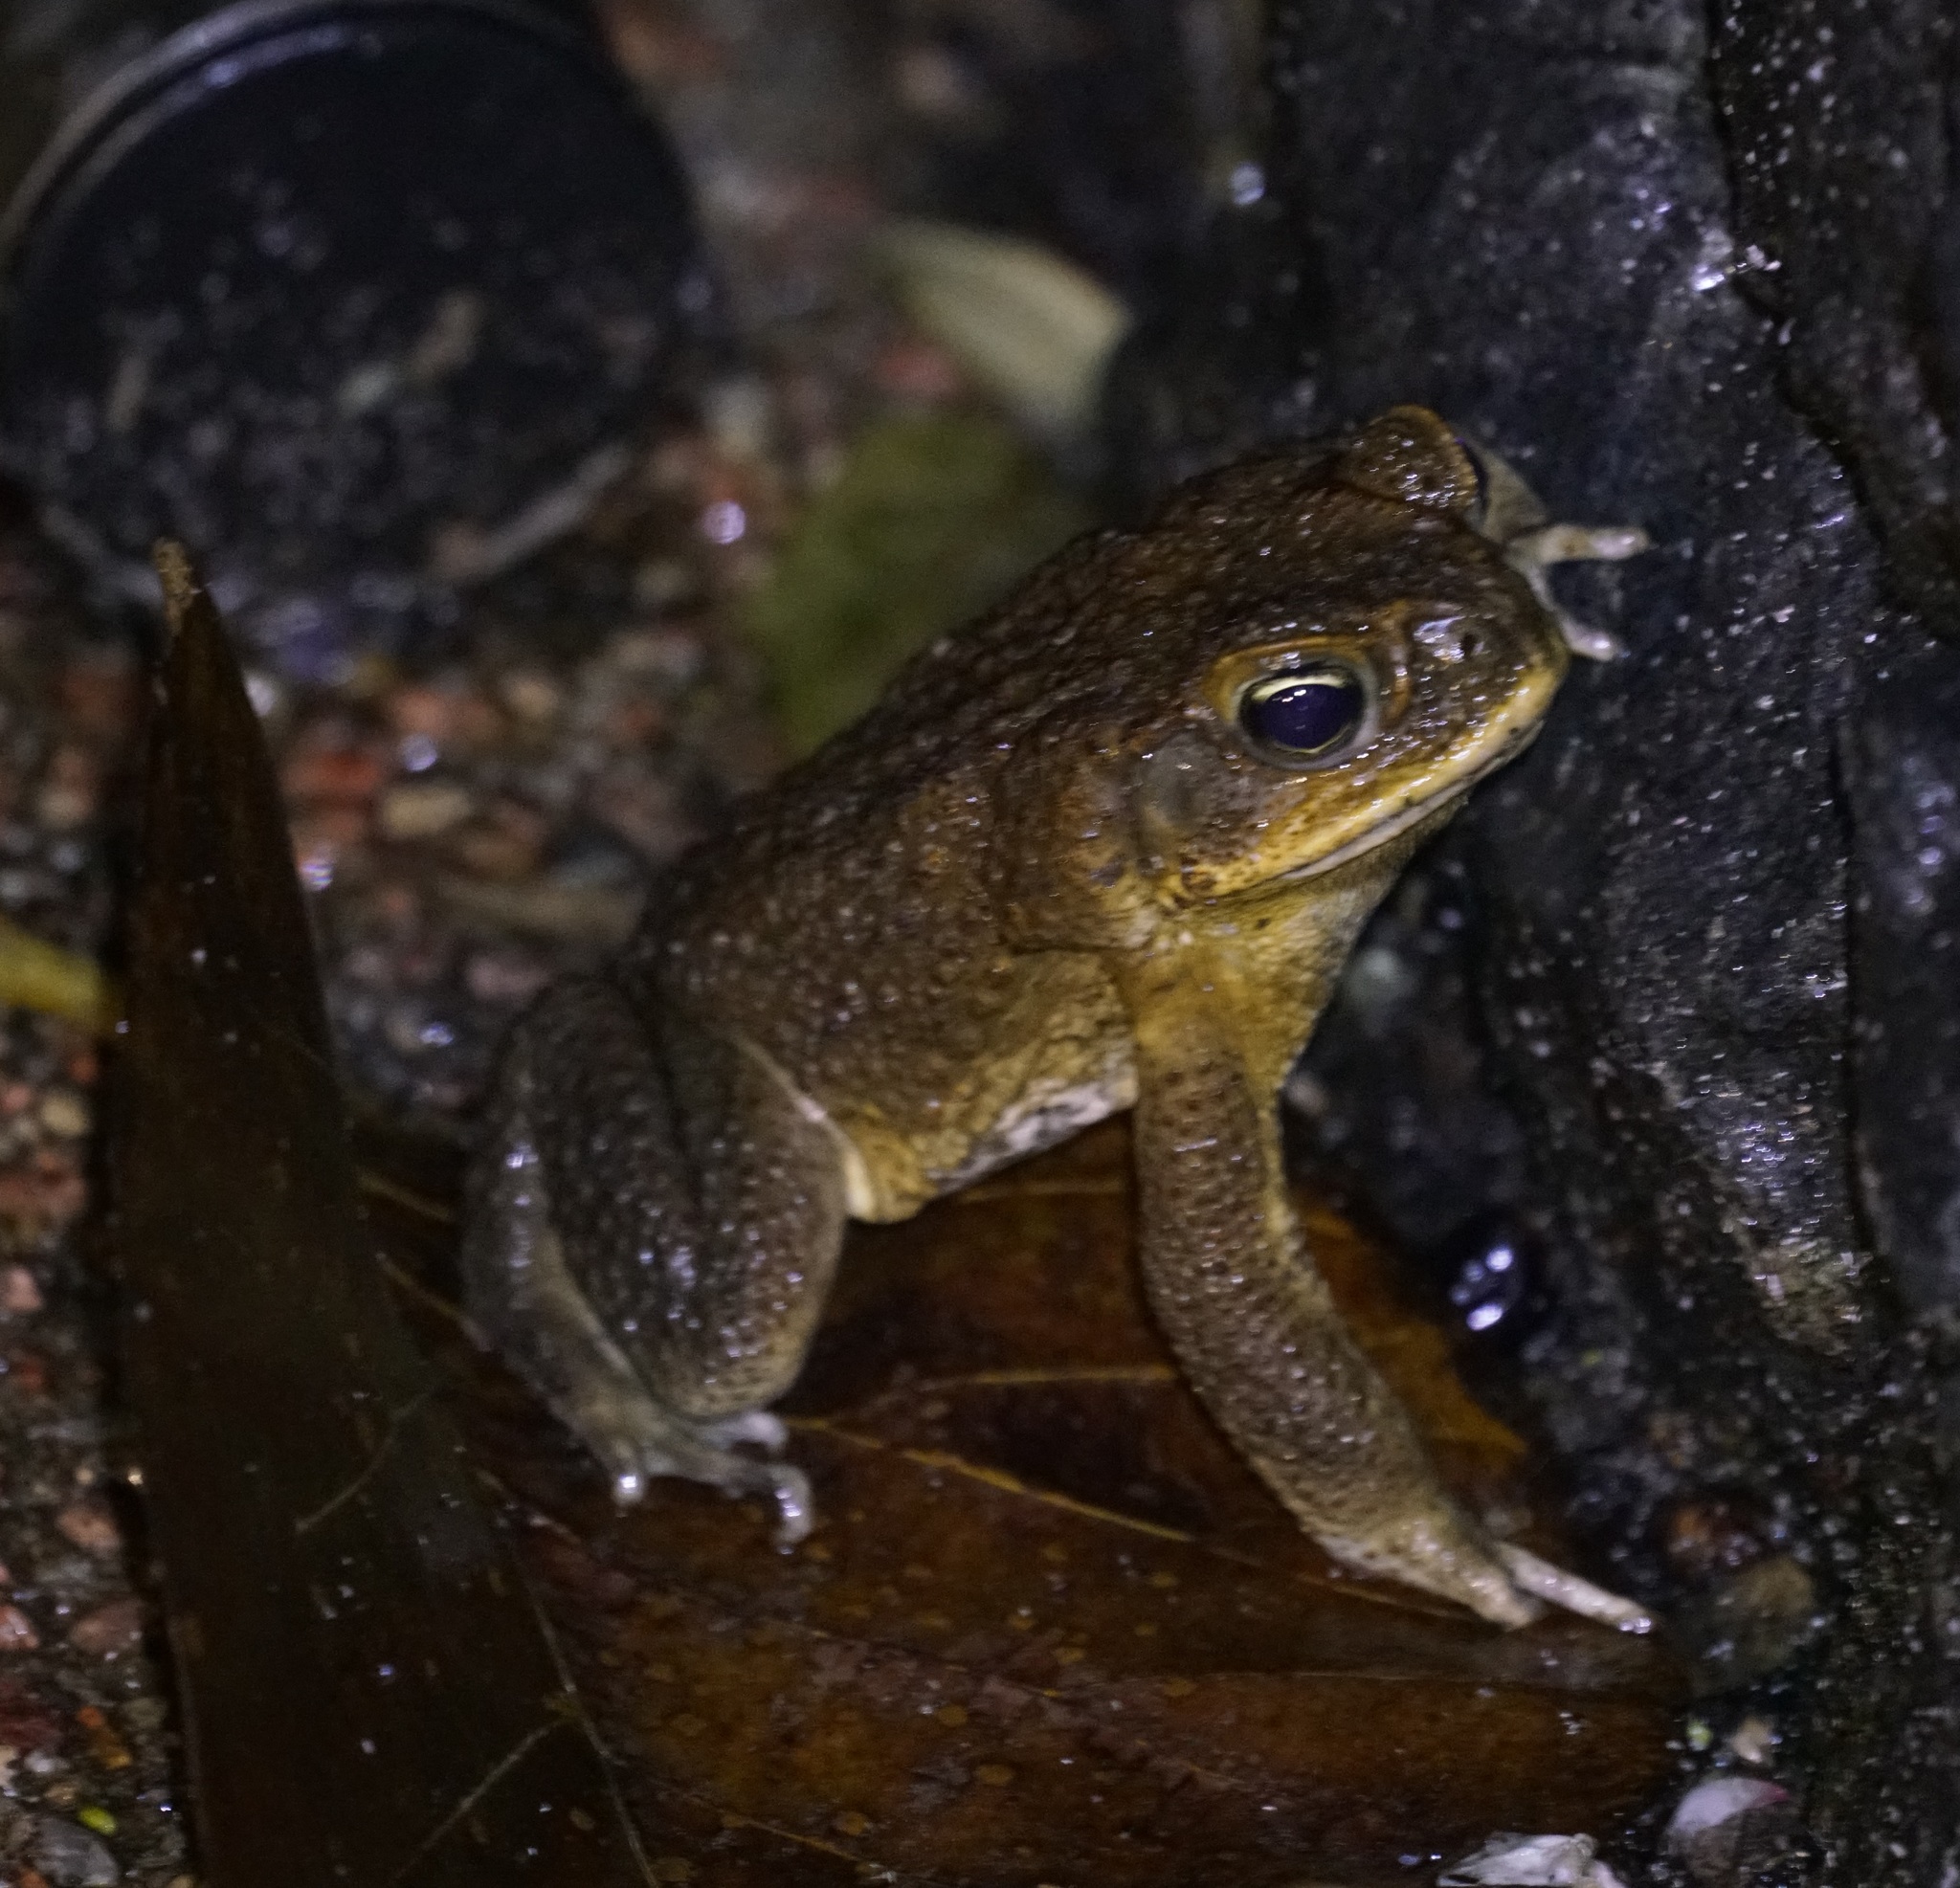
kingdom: Animalia
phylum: Chordata
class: Amphibia
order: Anura
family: Bufonidae
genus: Rhinella
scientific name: Rhinella marina
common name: Cane toad
